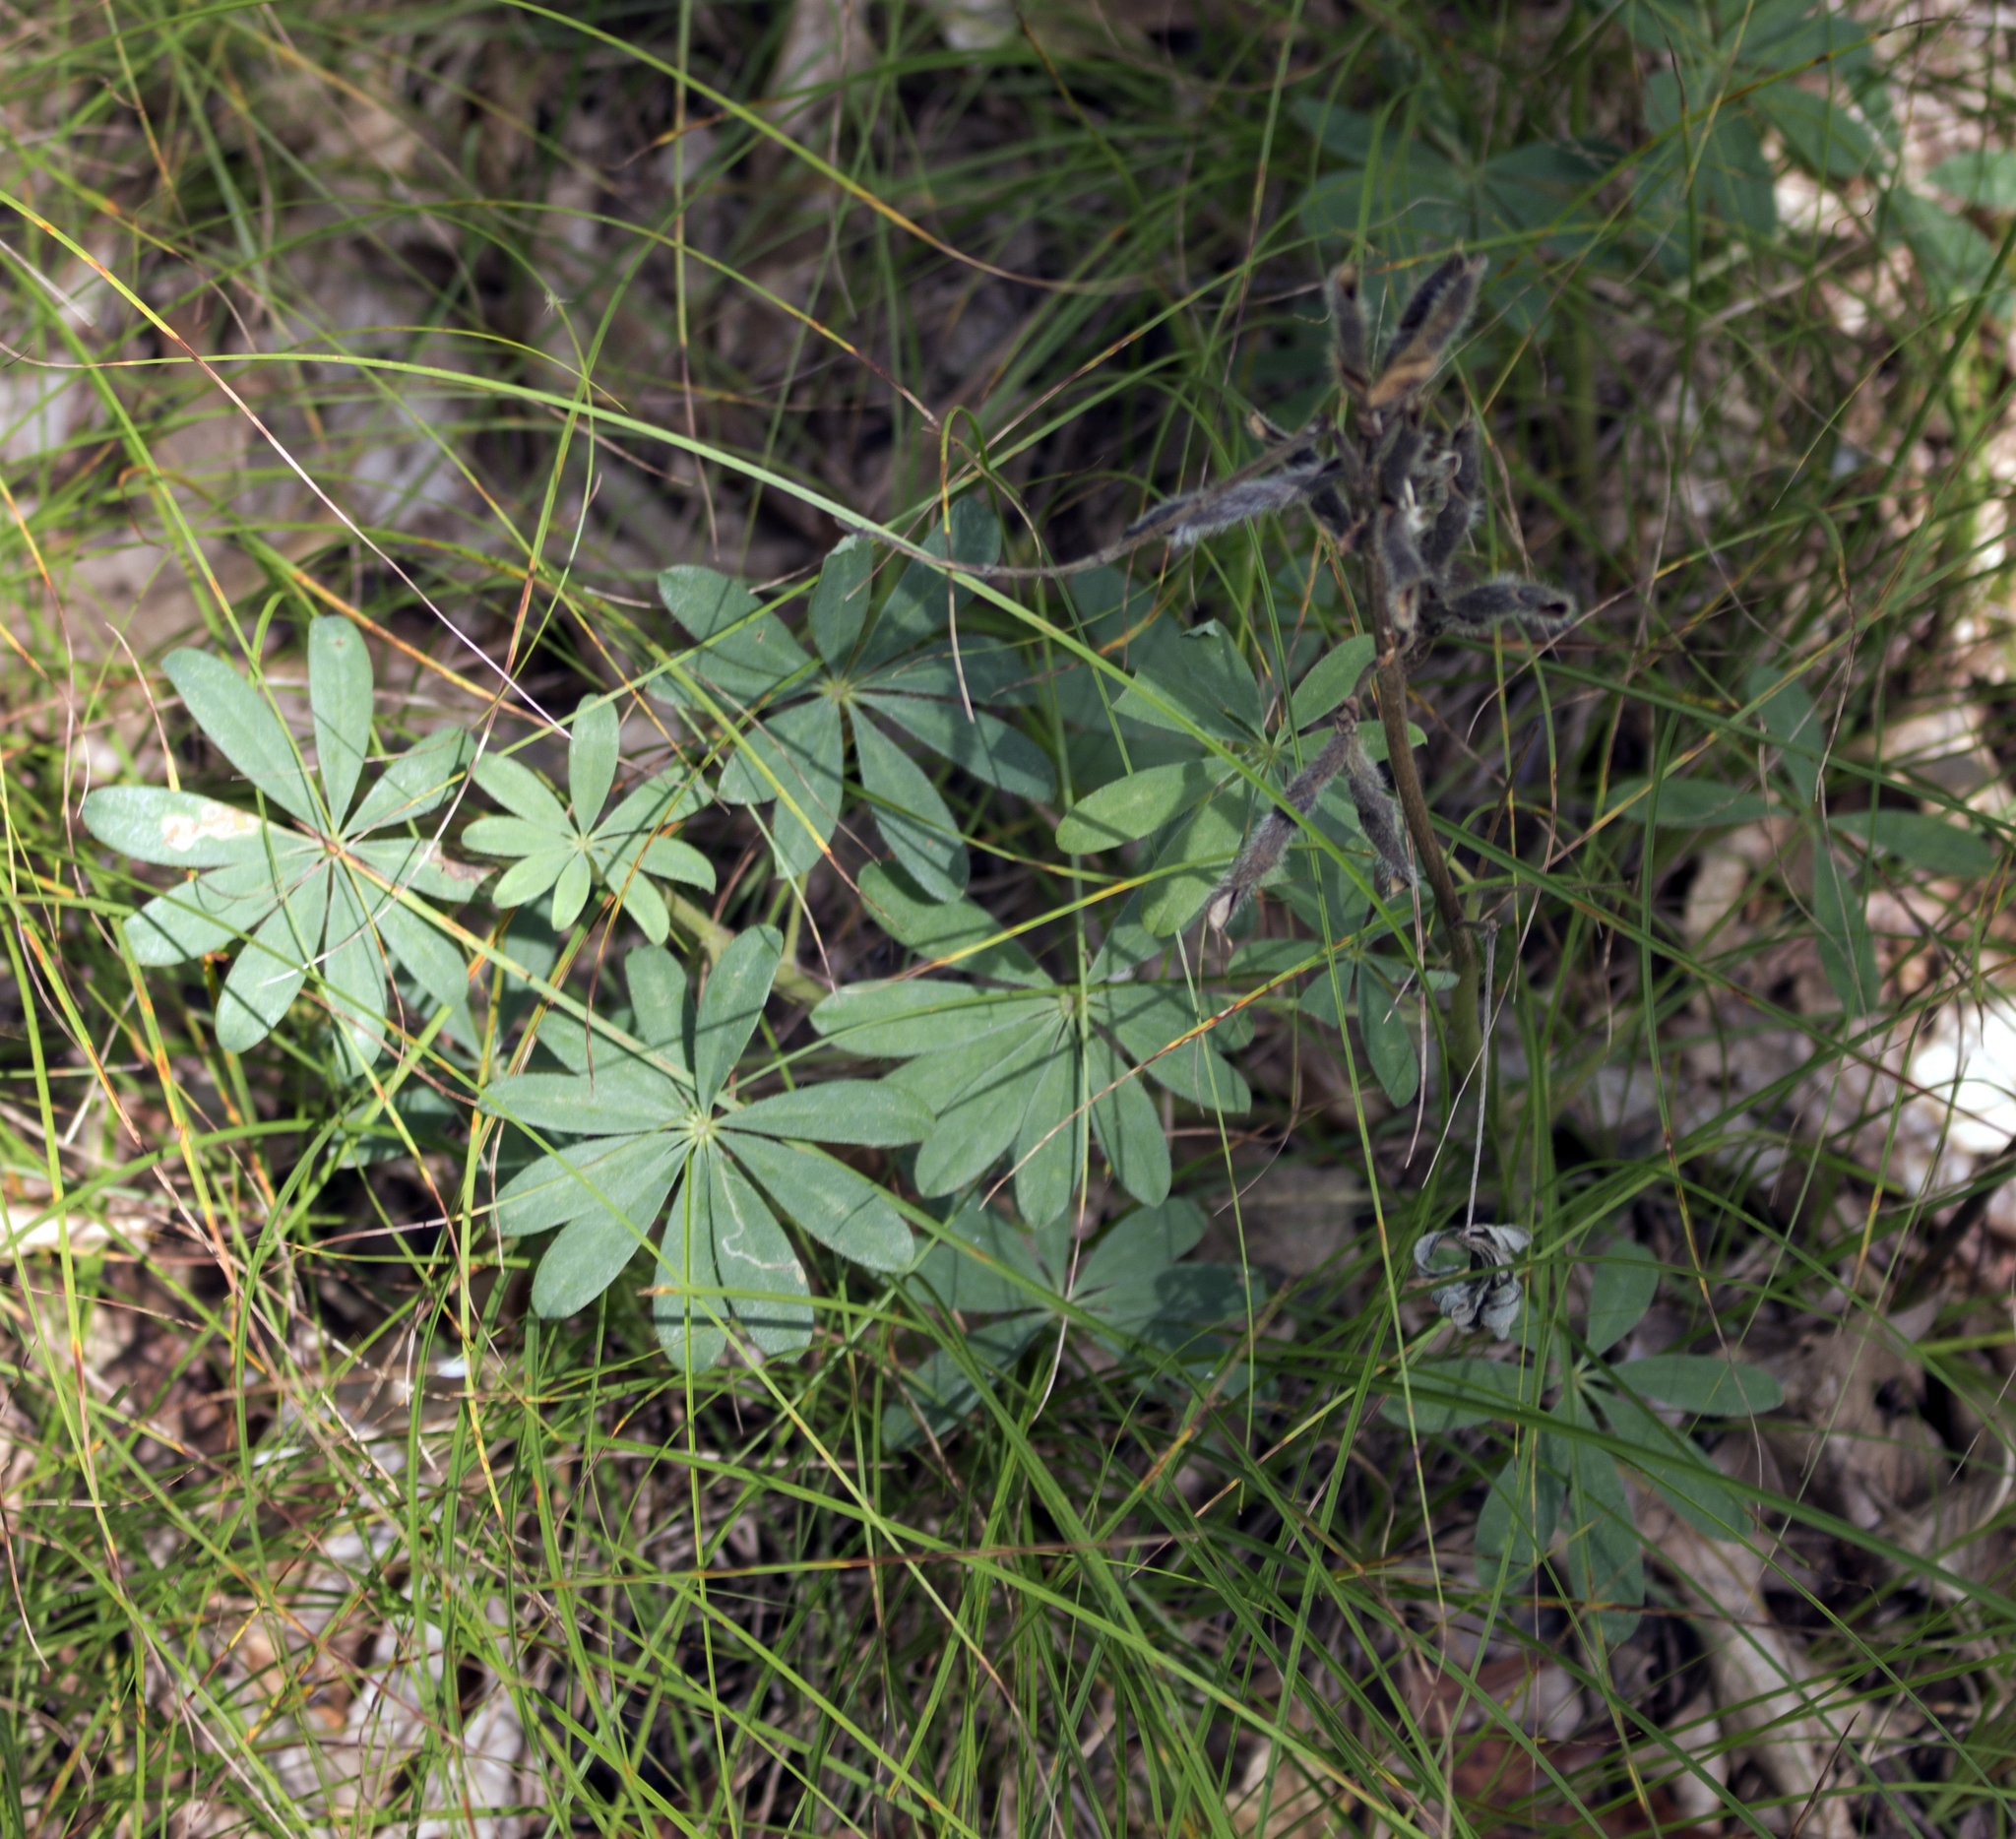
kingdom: Plantae
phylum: Tracheophyta
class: Magnoliopsida
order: Fabales
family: Fabaceae
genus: Lupinus
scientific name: Lupinus perennis
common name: Sundial lupine
